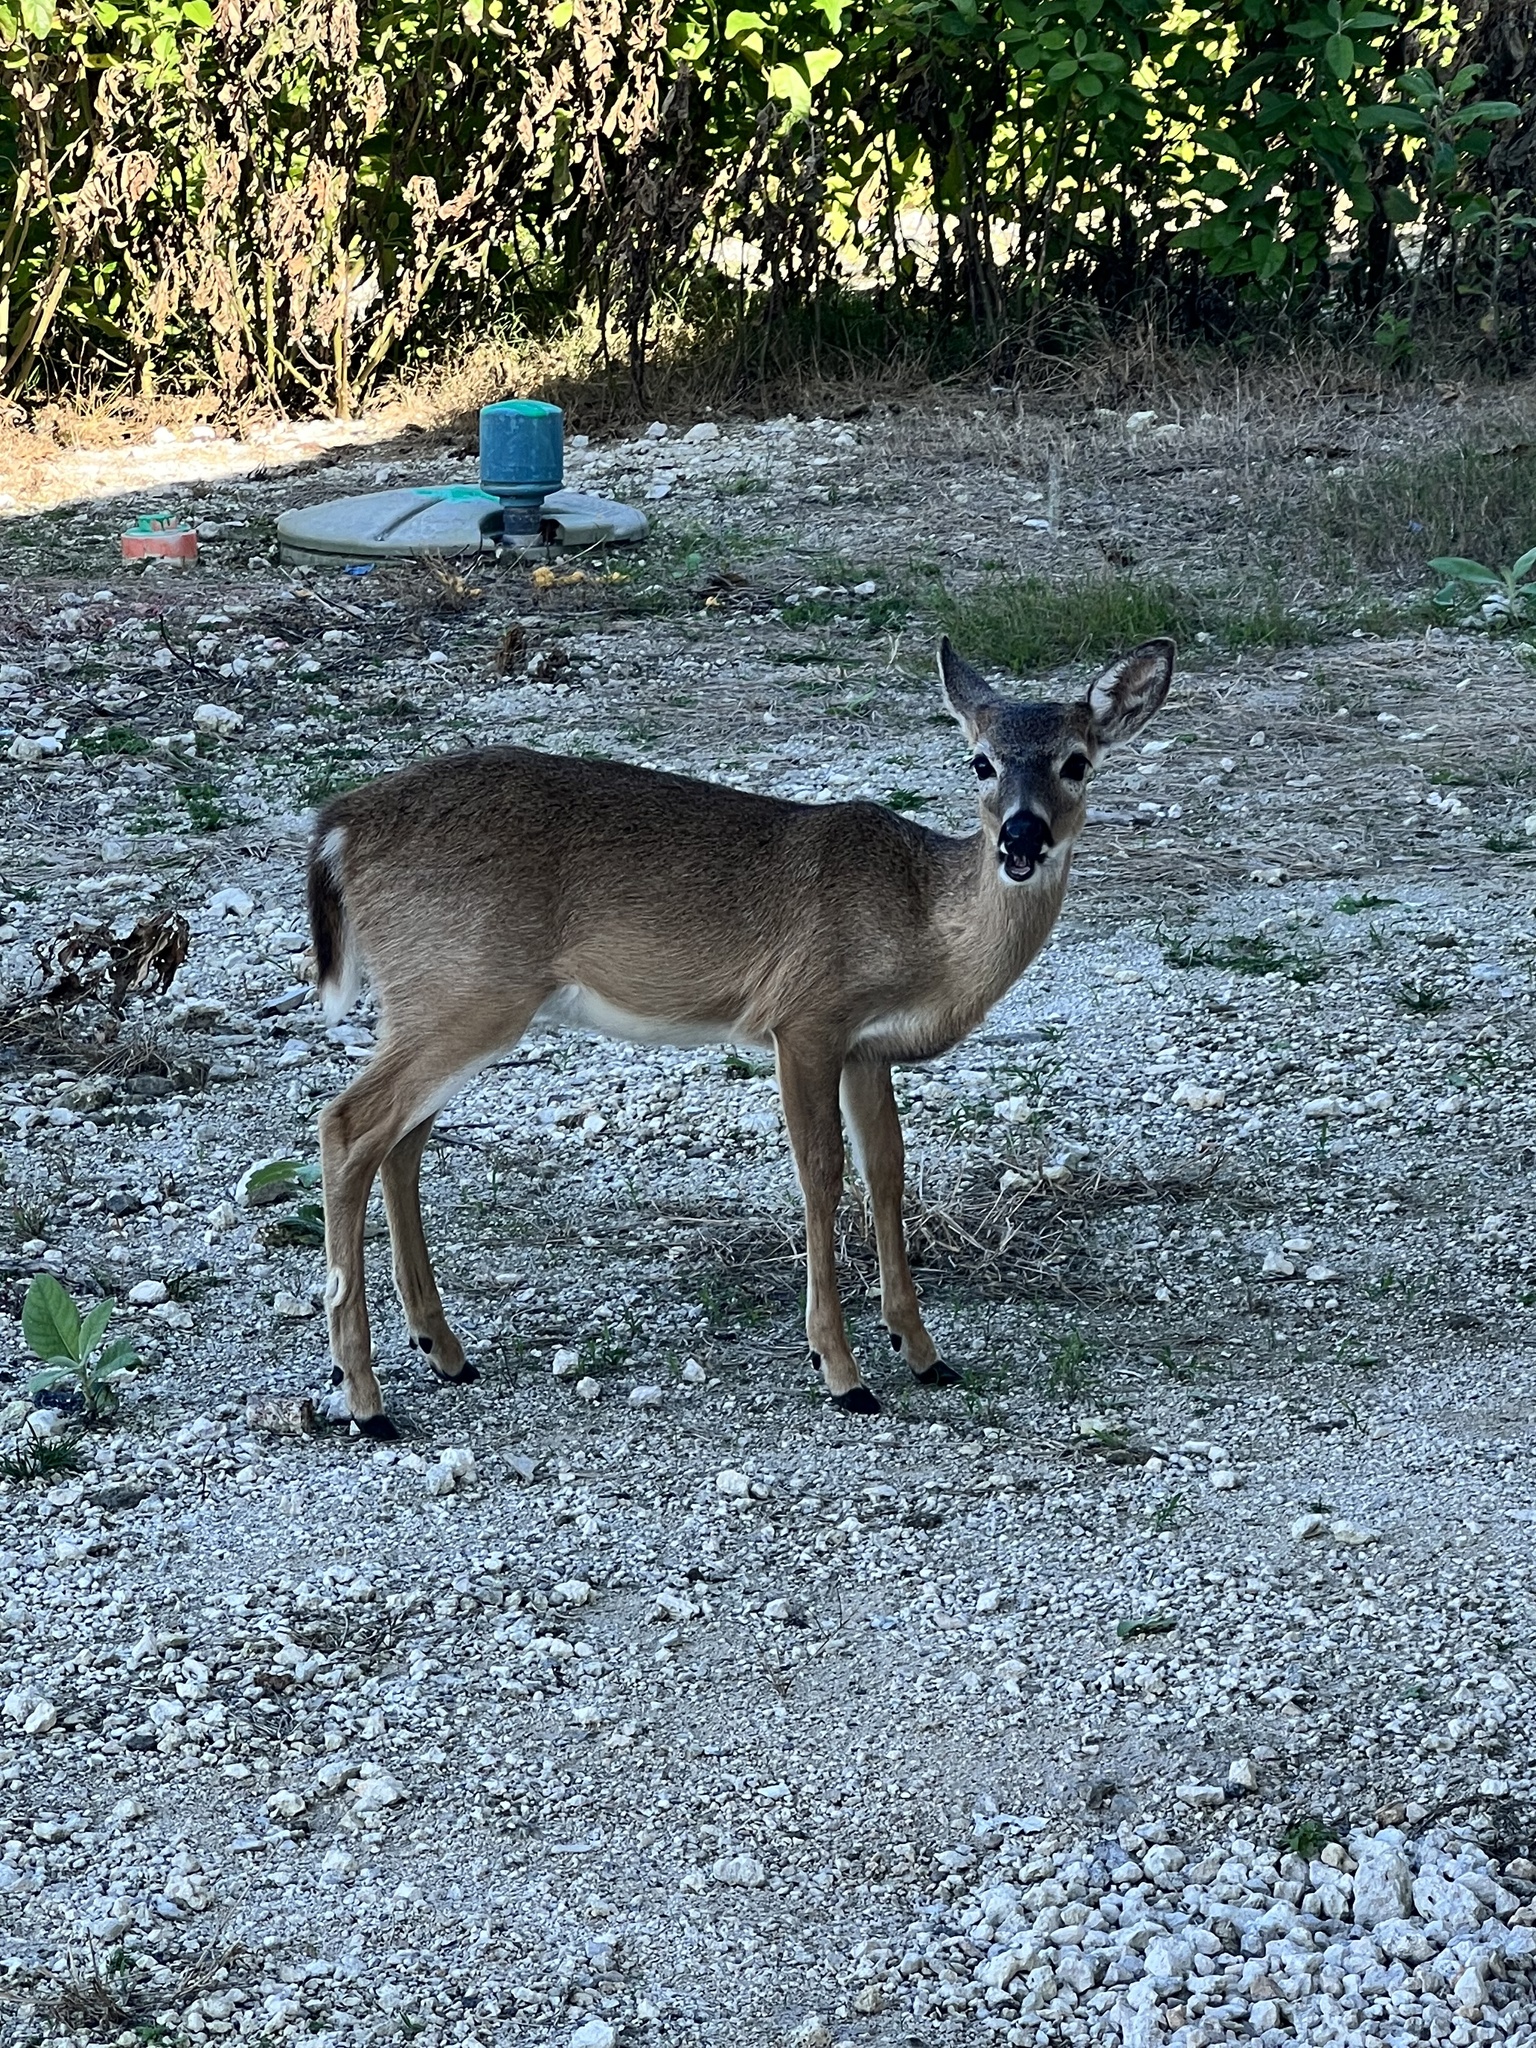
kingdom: Animalia
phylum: Chordata
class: Mammalia
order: Artiodactyla
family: Cervidae
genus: Odocoileus
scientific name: Odocoileus virginianus
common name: White-tailed deer
